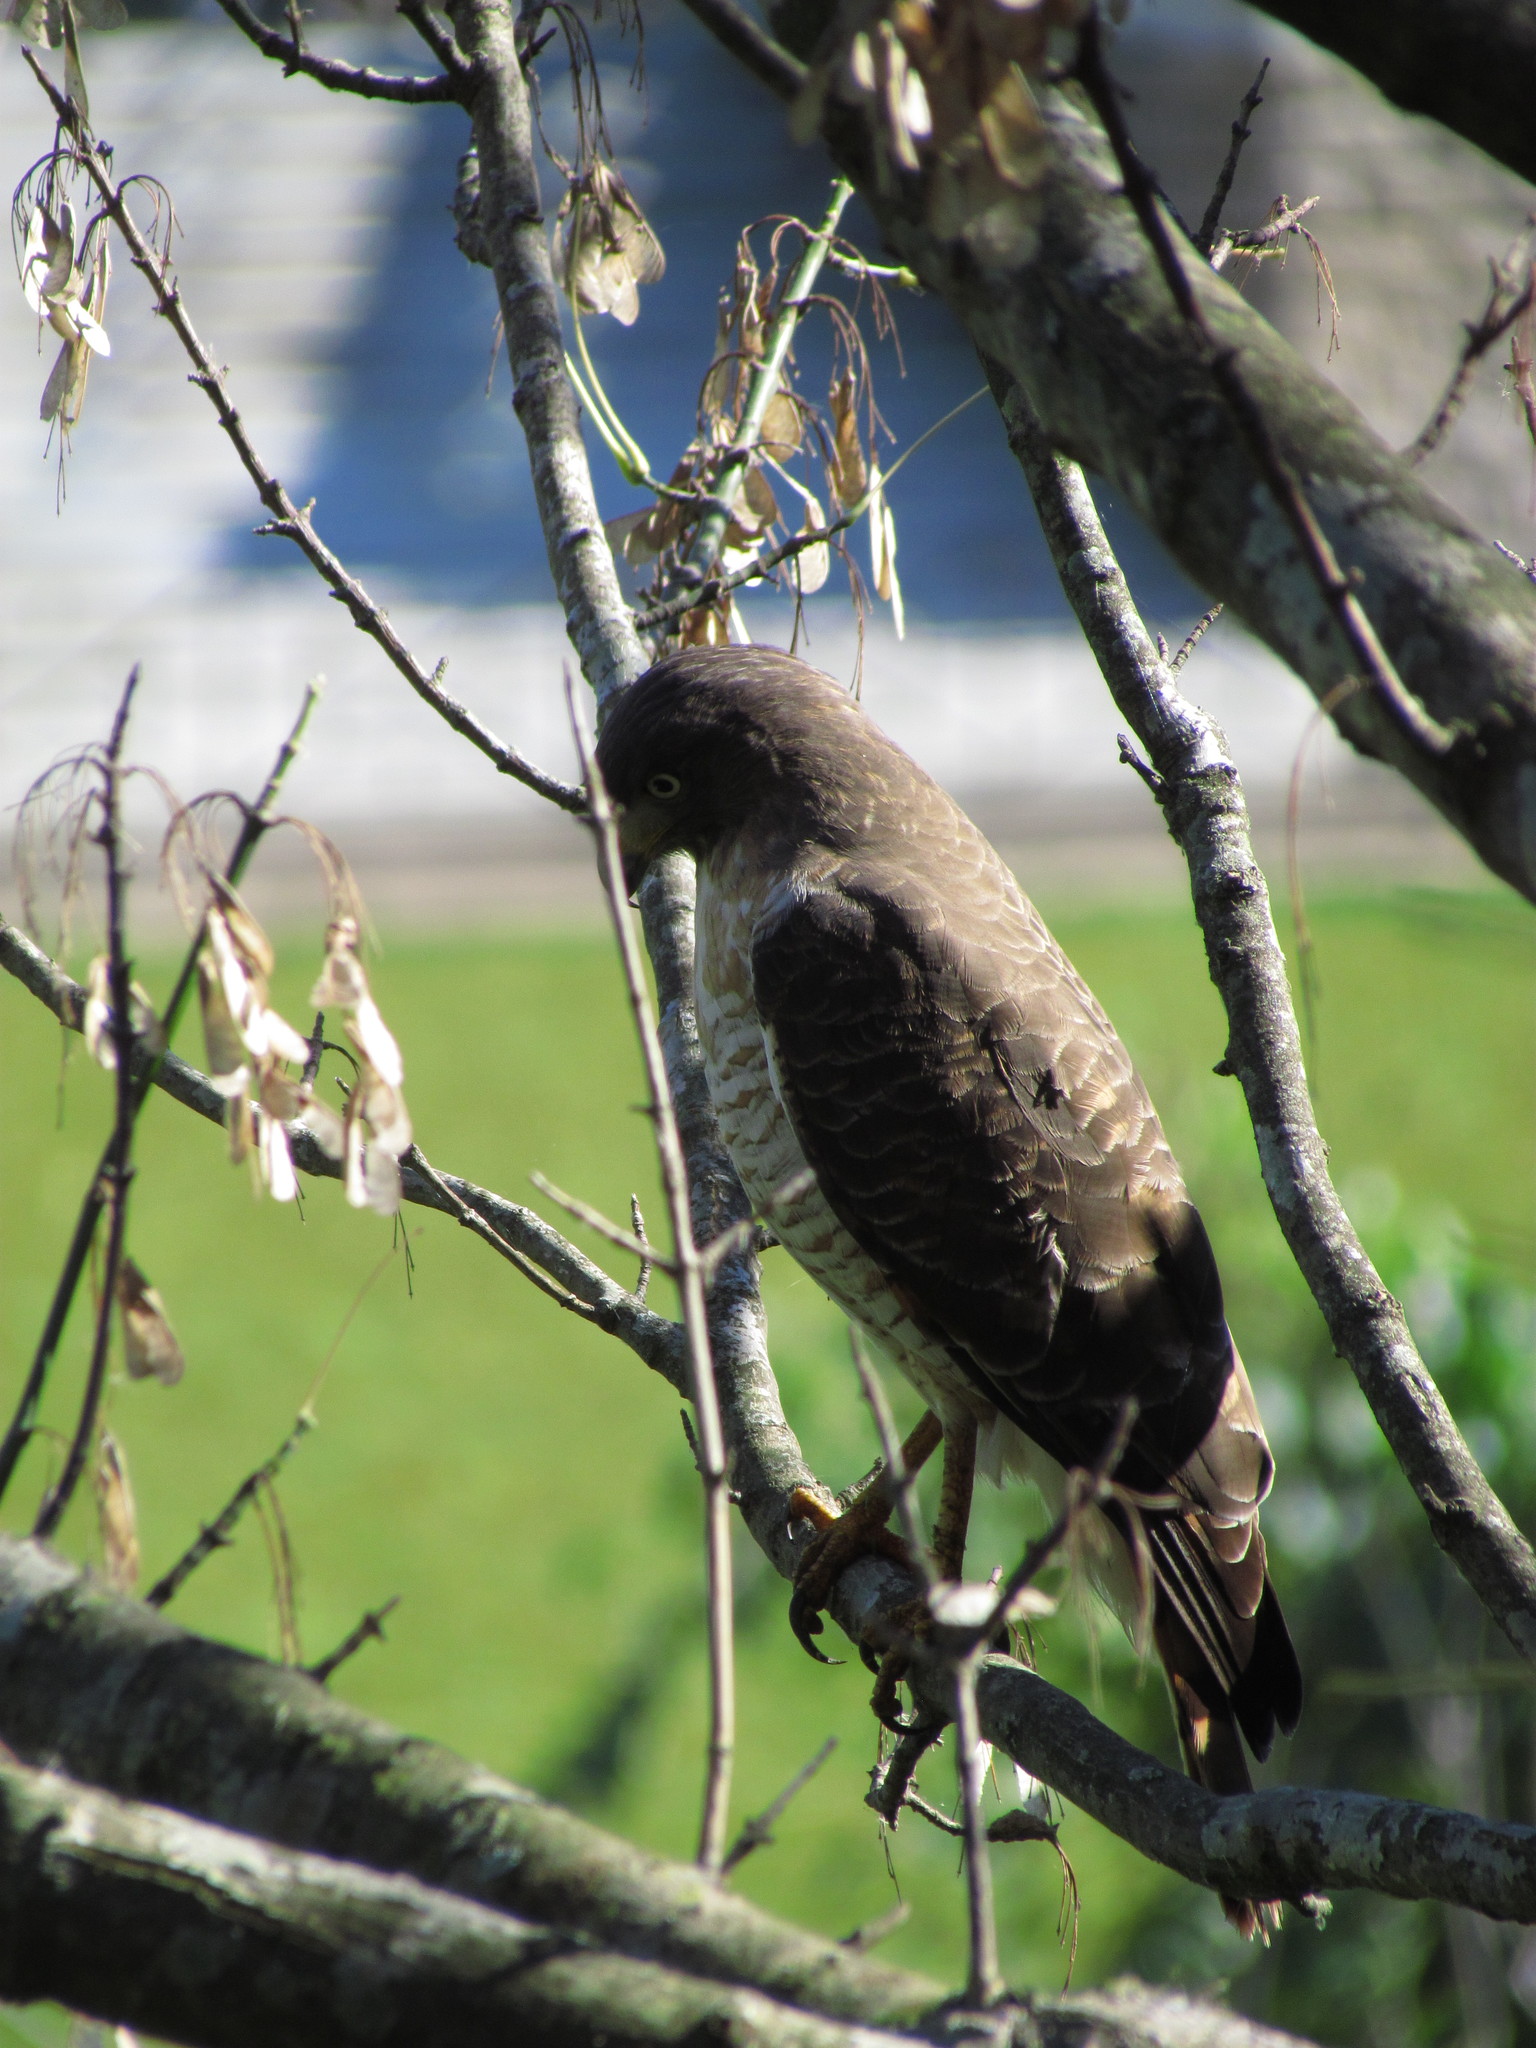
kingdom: Animalia
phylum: Chordata
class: Aves
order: Accipitriformes
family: Accipitridae
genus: Rupornis
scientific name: Rupornis magnirostris
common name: Roadside hawk
